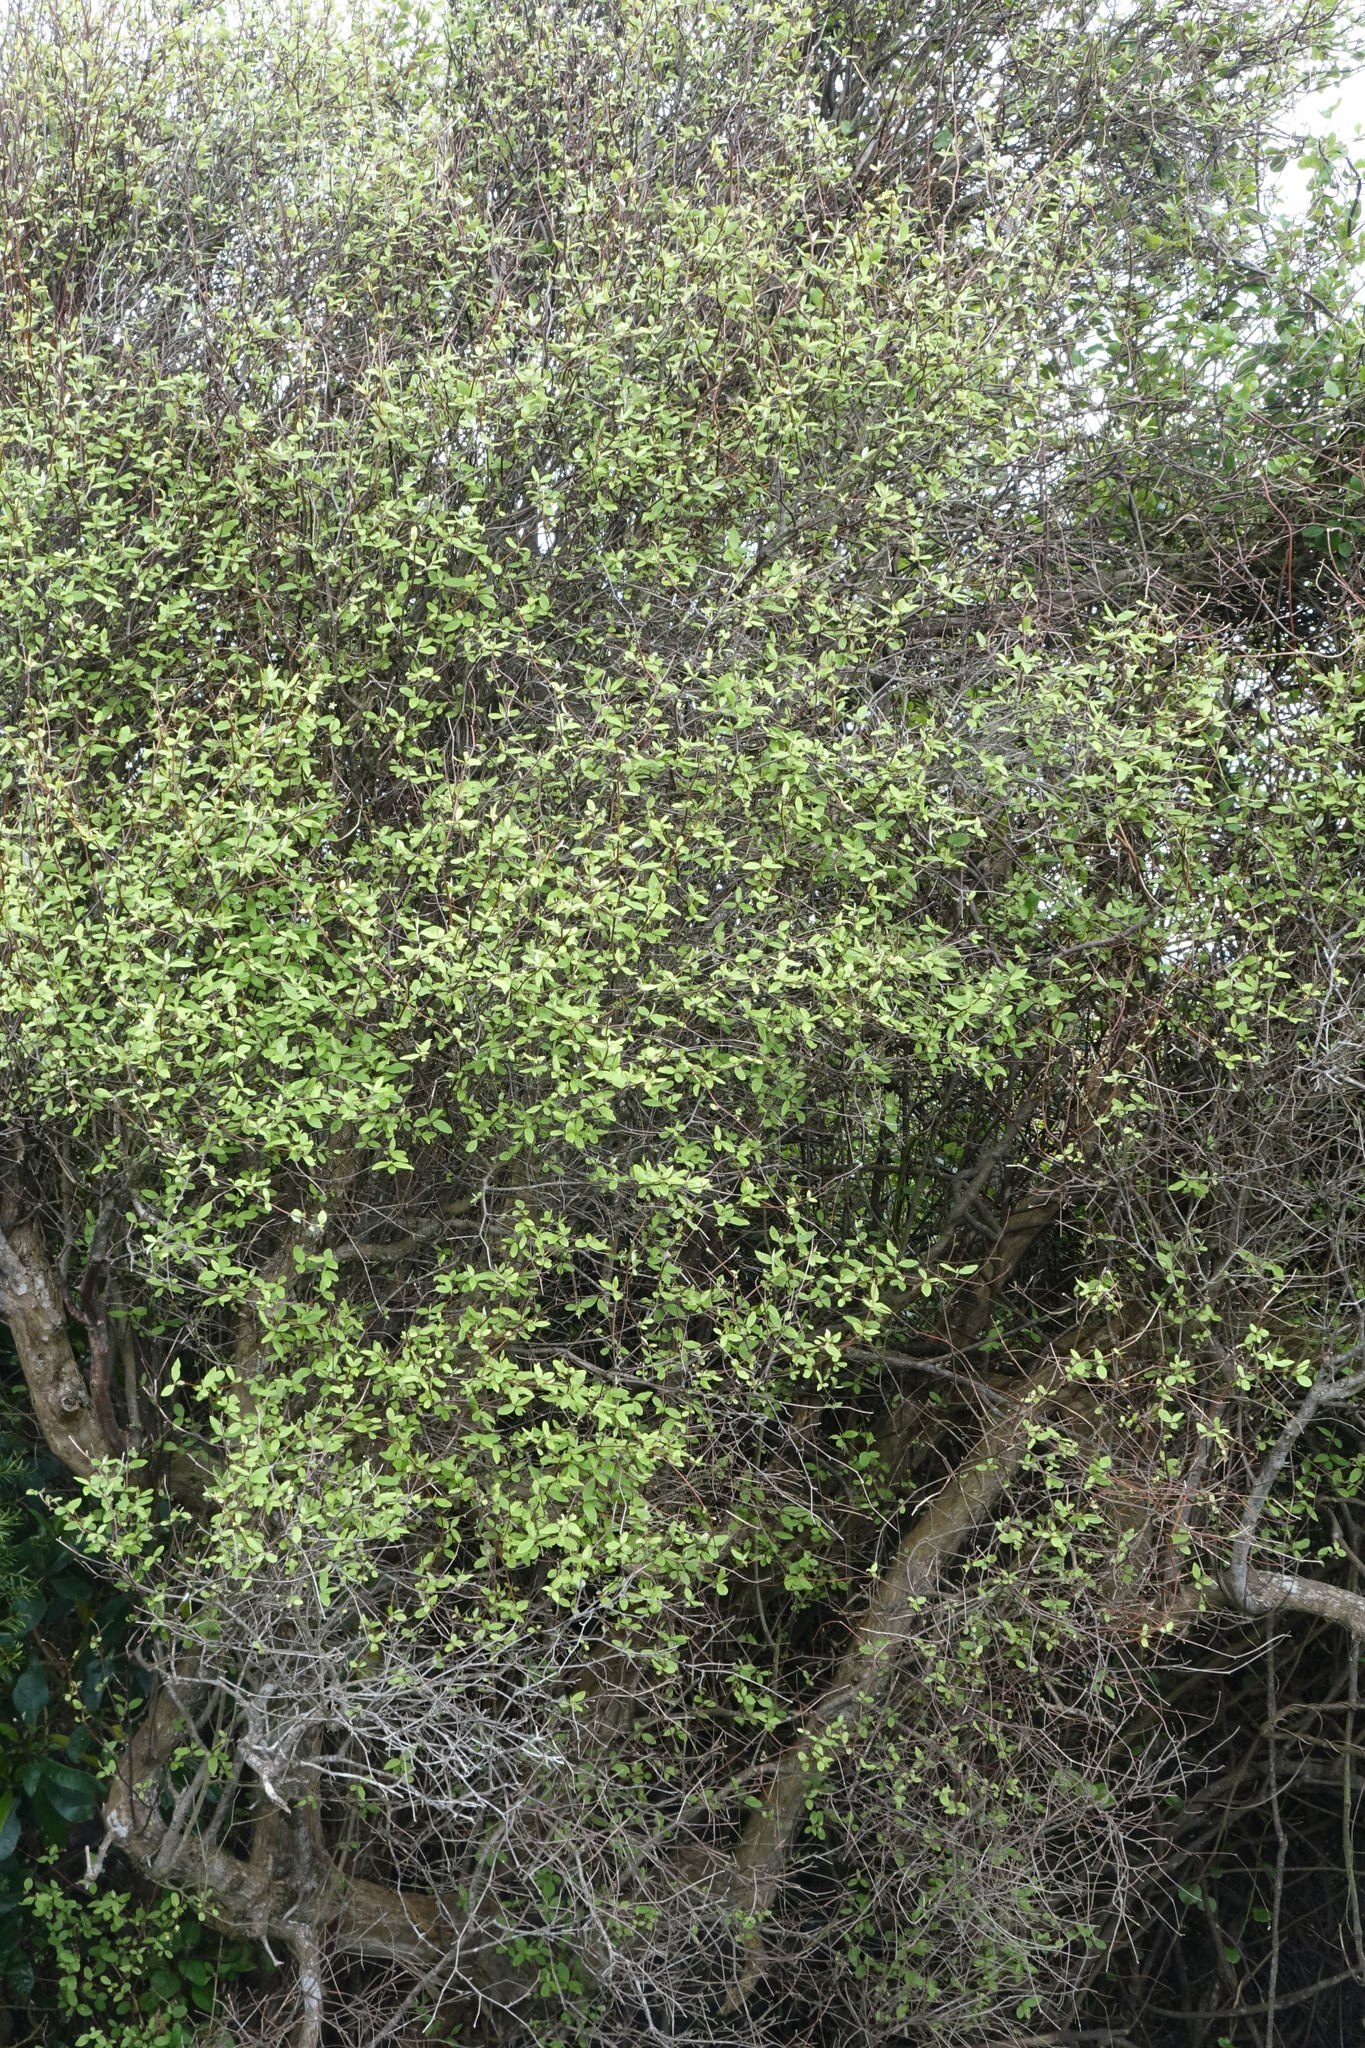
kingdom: Plantae
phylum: Tracheophyta
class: Magnoliopsida
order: Asterales
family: Asteraceae
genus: Olearia
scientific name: Olearia fragrantissima
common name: Fragrant tree daisy
